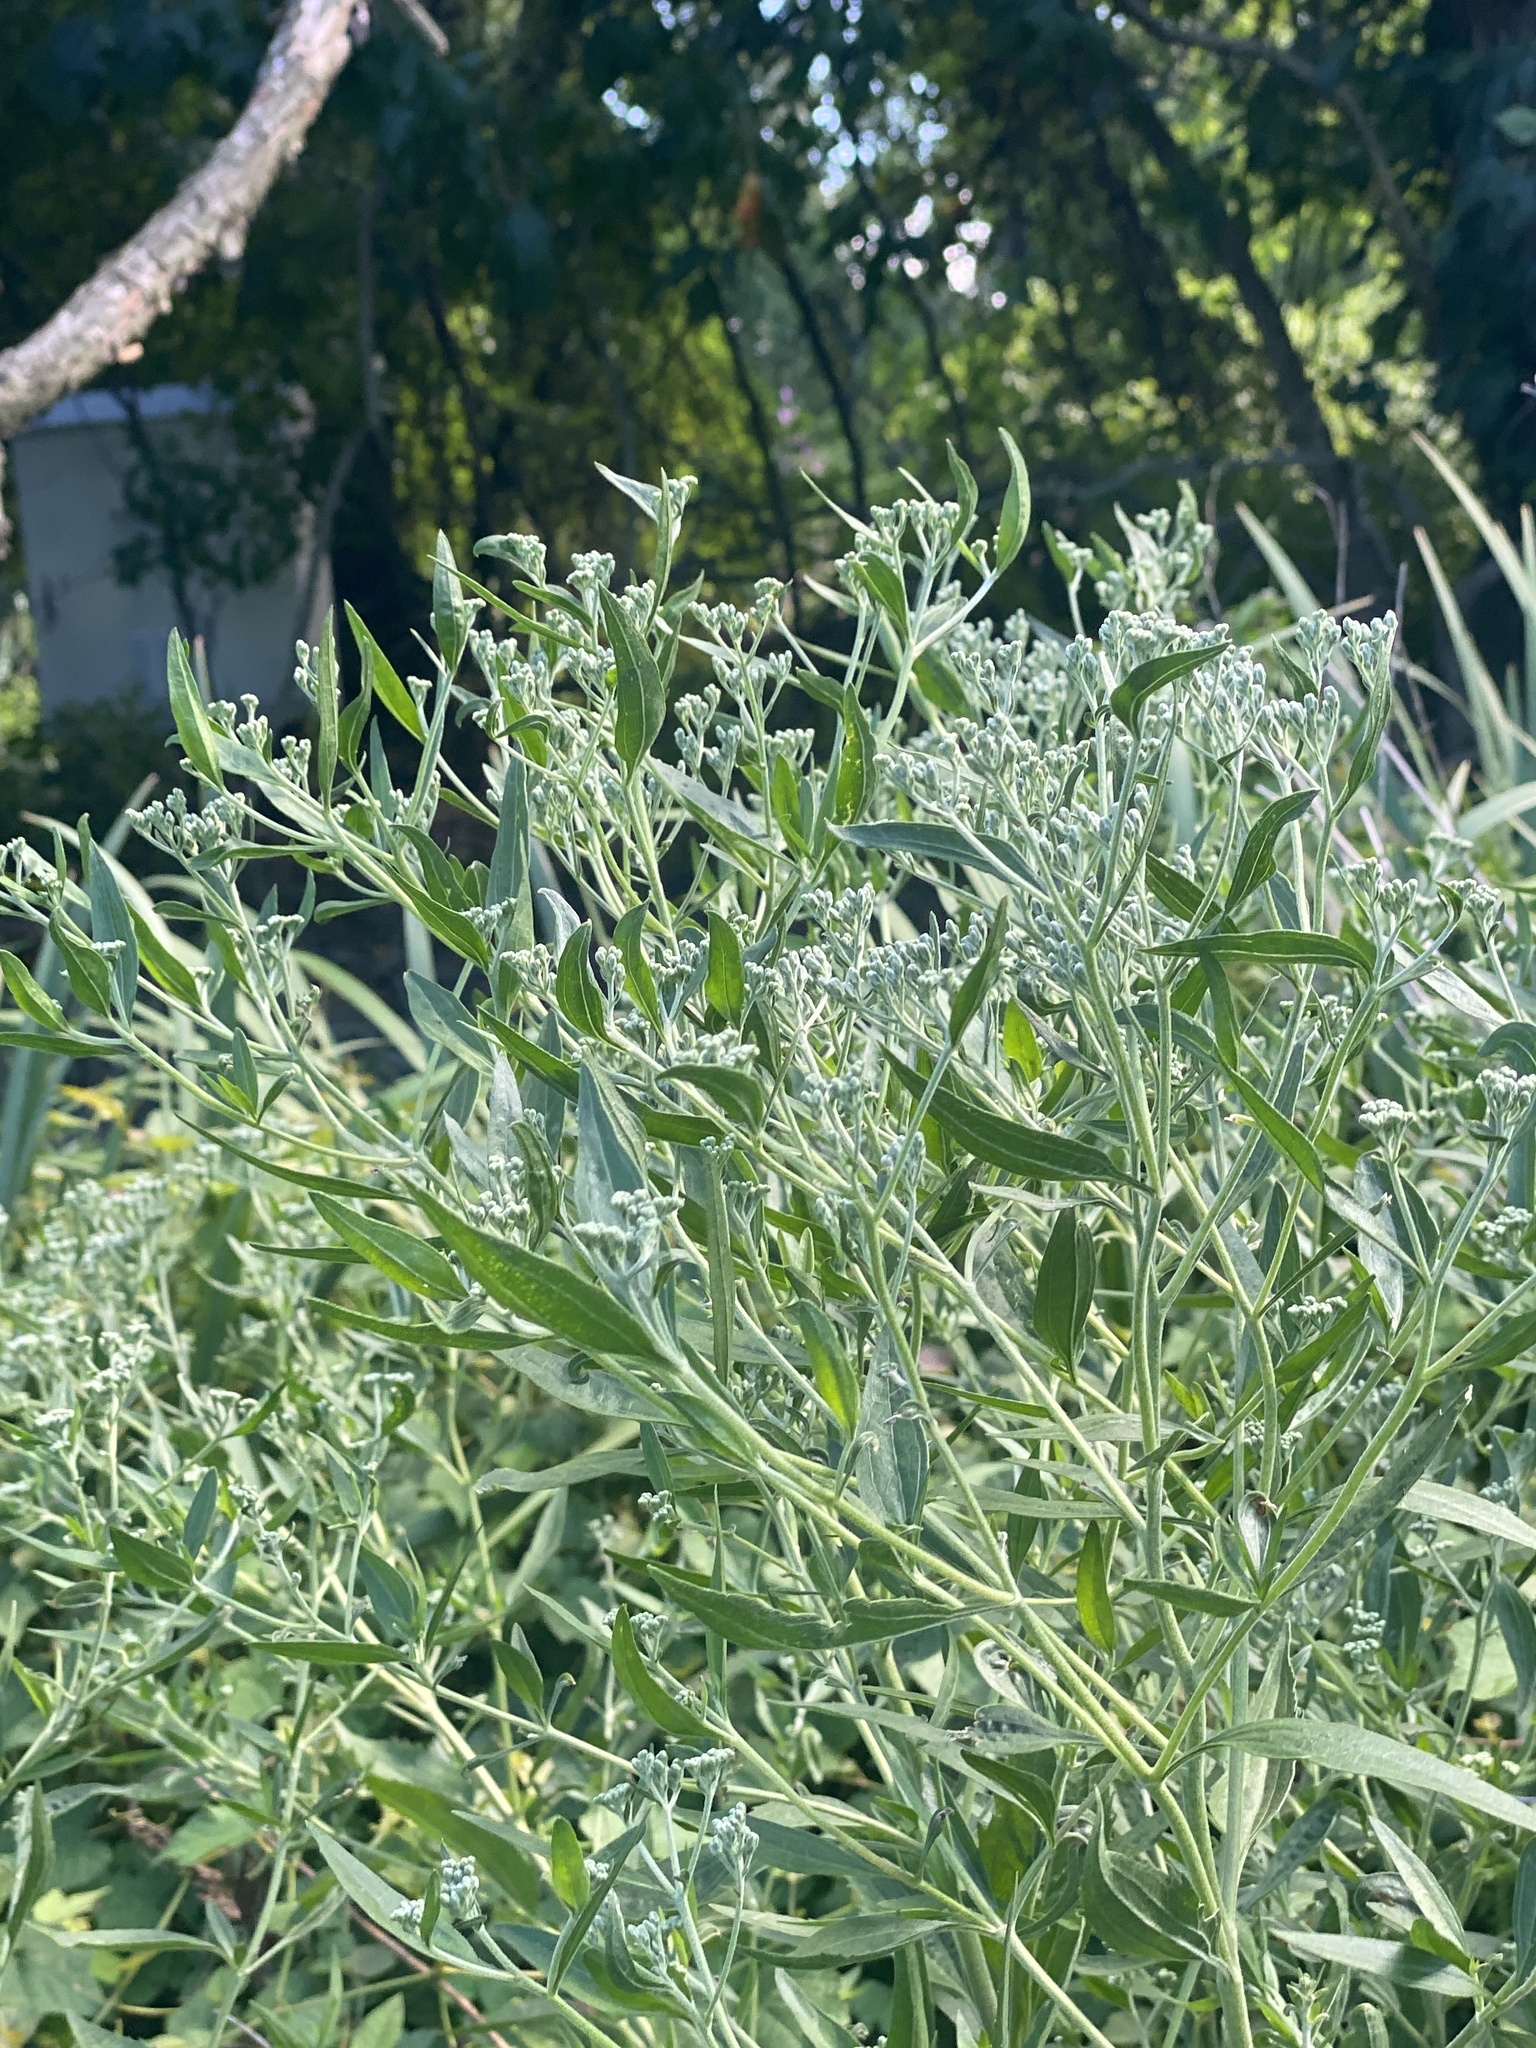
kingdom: Plantae
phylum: Tracheophyta
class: Magnoliopsida
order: Asterales
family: Asteraceae
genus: Eupatorium
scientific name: Eupatorium serotinum
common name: Late boneset
